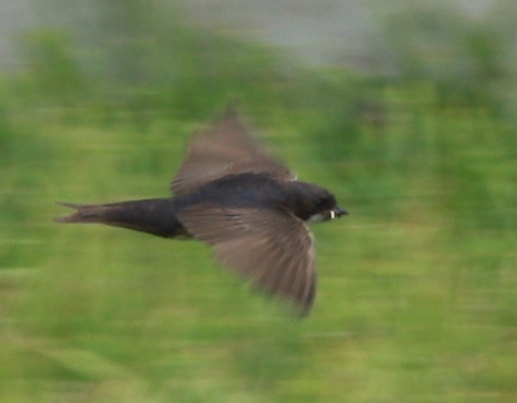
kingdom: Animalia
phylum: Chordata
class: Aves
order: Passeriformes
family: Hirundinidae
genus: Notiochelidon
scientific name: Notiochelidon cyanoleuca
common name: Blue-and-white swallow
